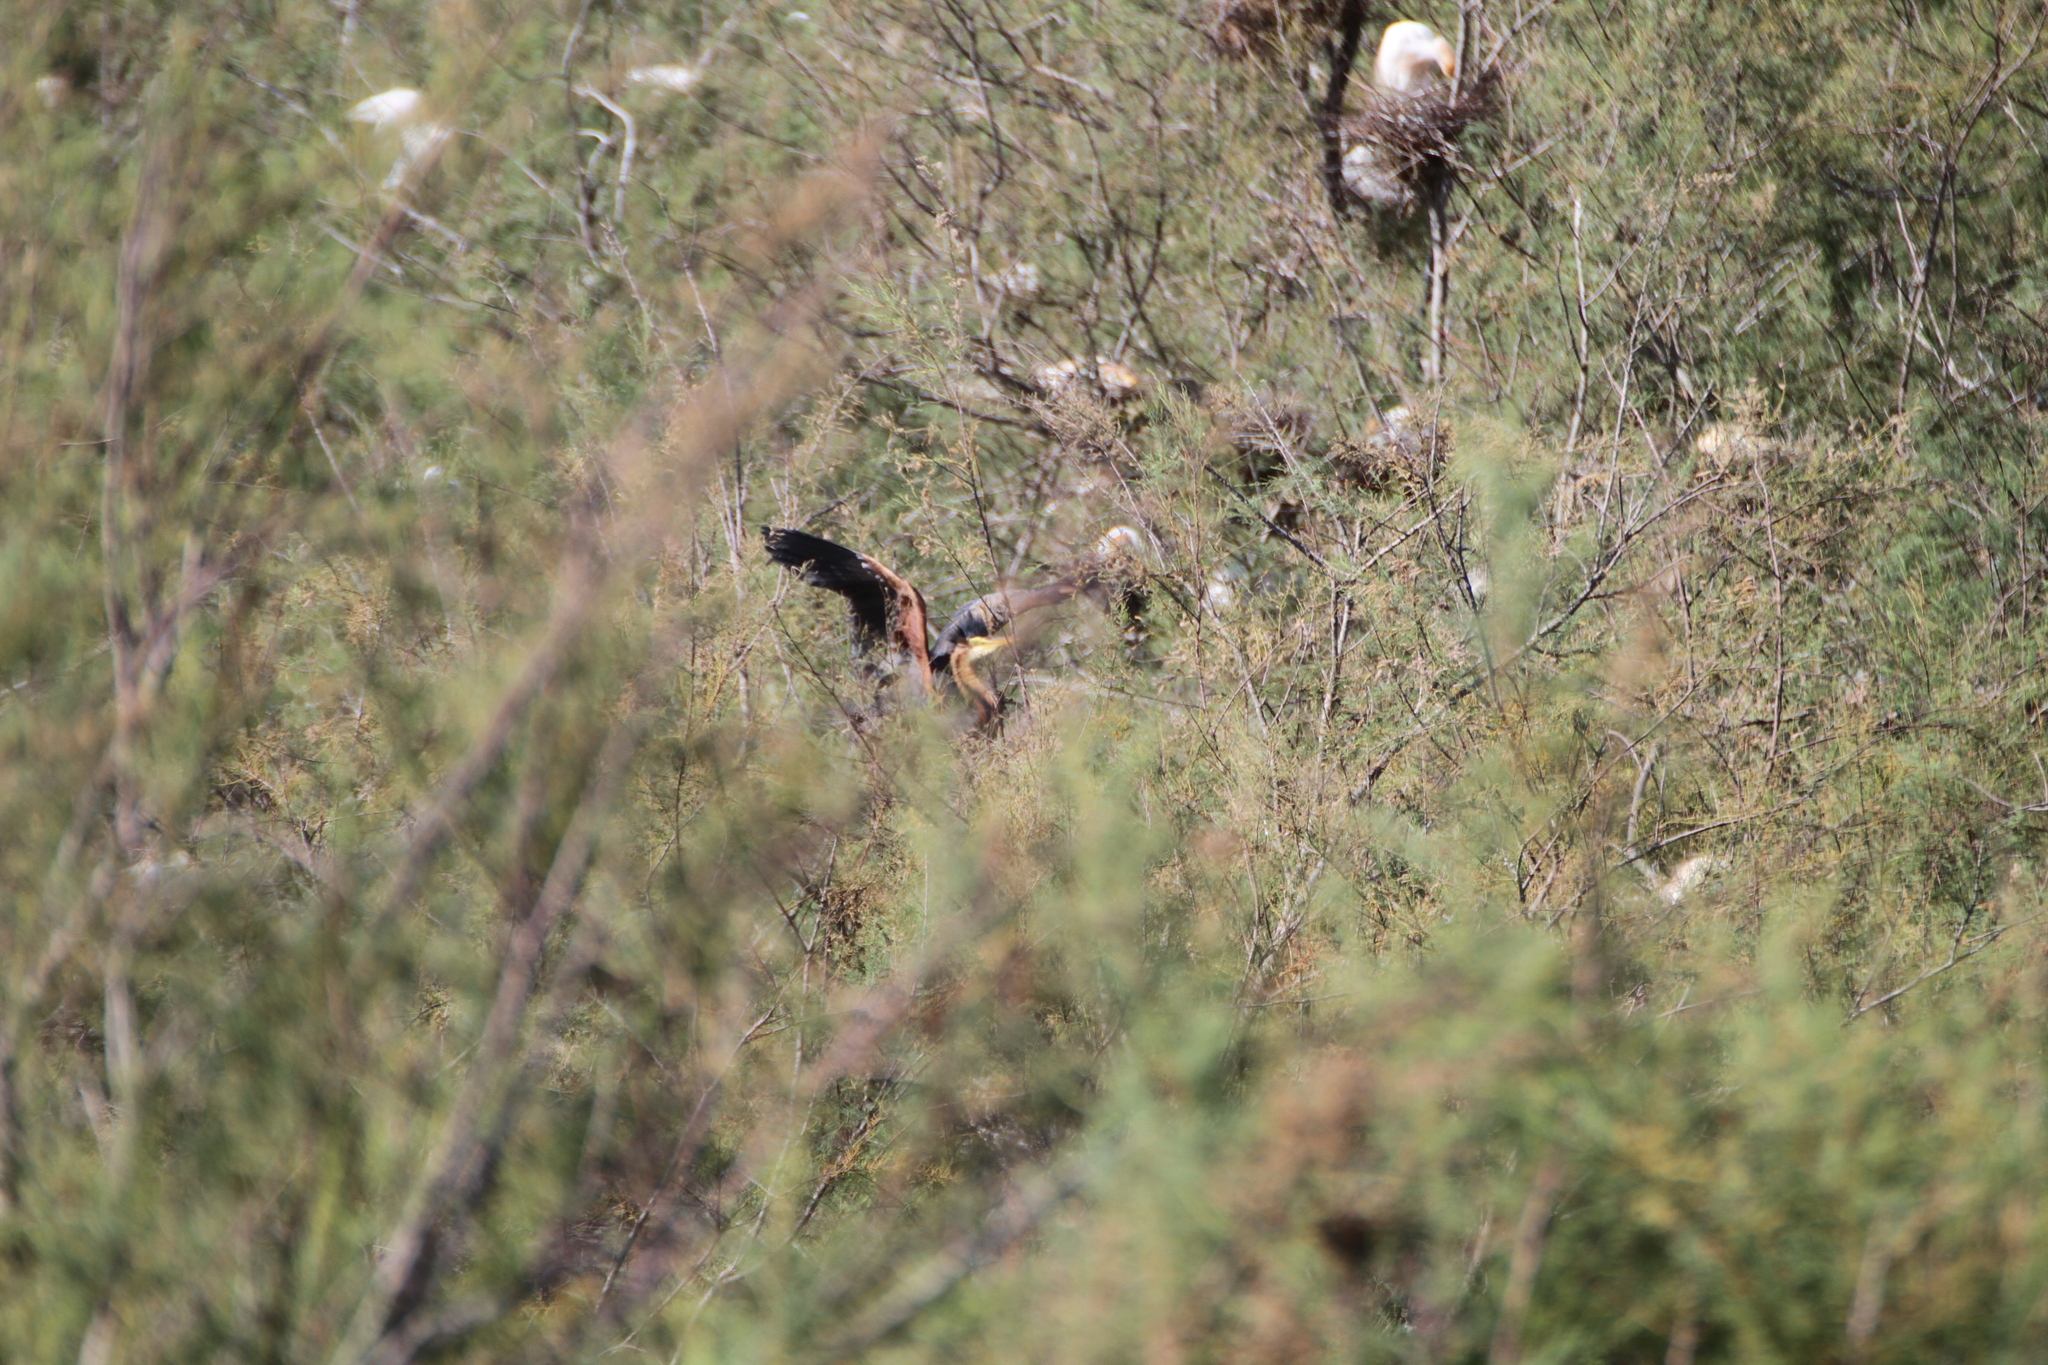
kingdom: Animalia
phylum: Chordata
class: Aves
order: Pelecaniformes
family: Ardeidae
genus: Ardea
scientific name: Ardea purpurea
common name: Purple heron
